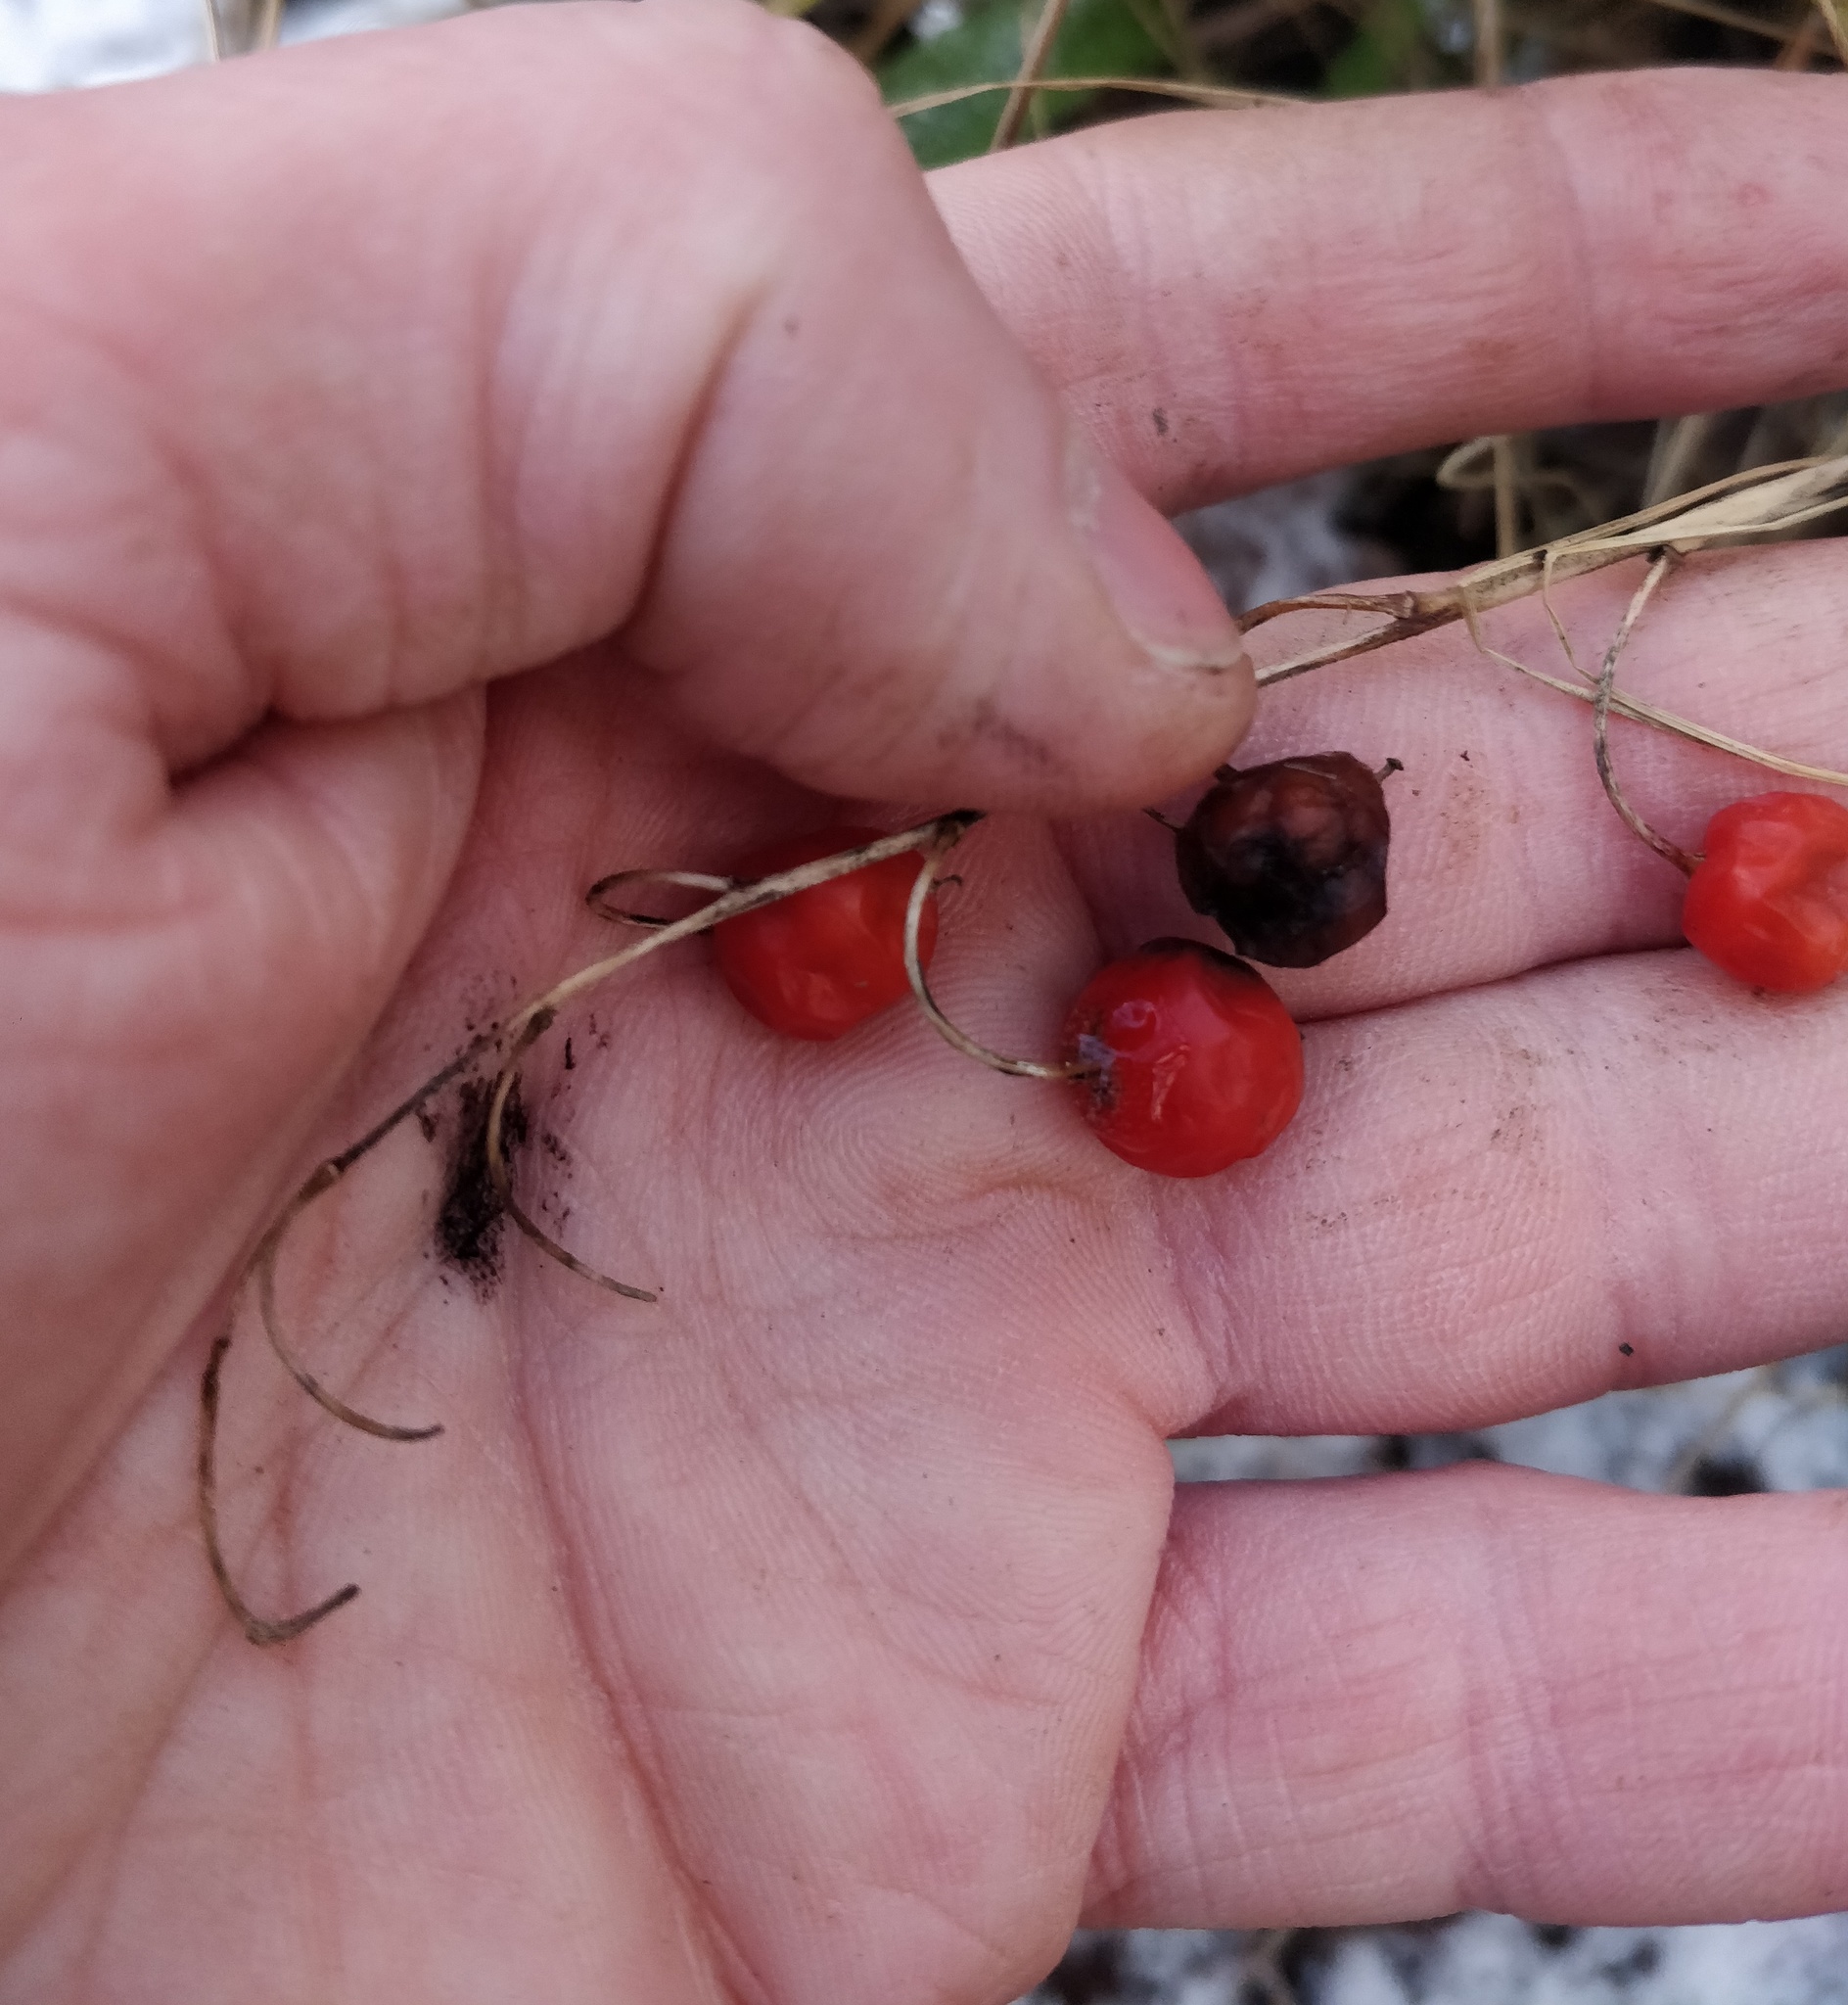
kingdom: Plantae
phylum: Tracheophyta
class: Liliopsida
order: Asparagales
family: Asparagaceae
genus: Convallaria
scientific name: Convallaria majalis
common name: Lily-of-the-valley
